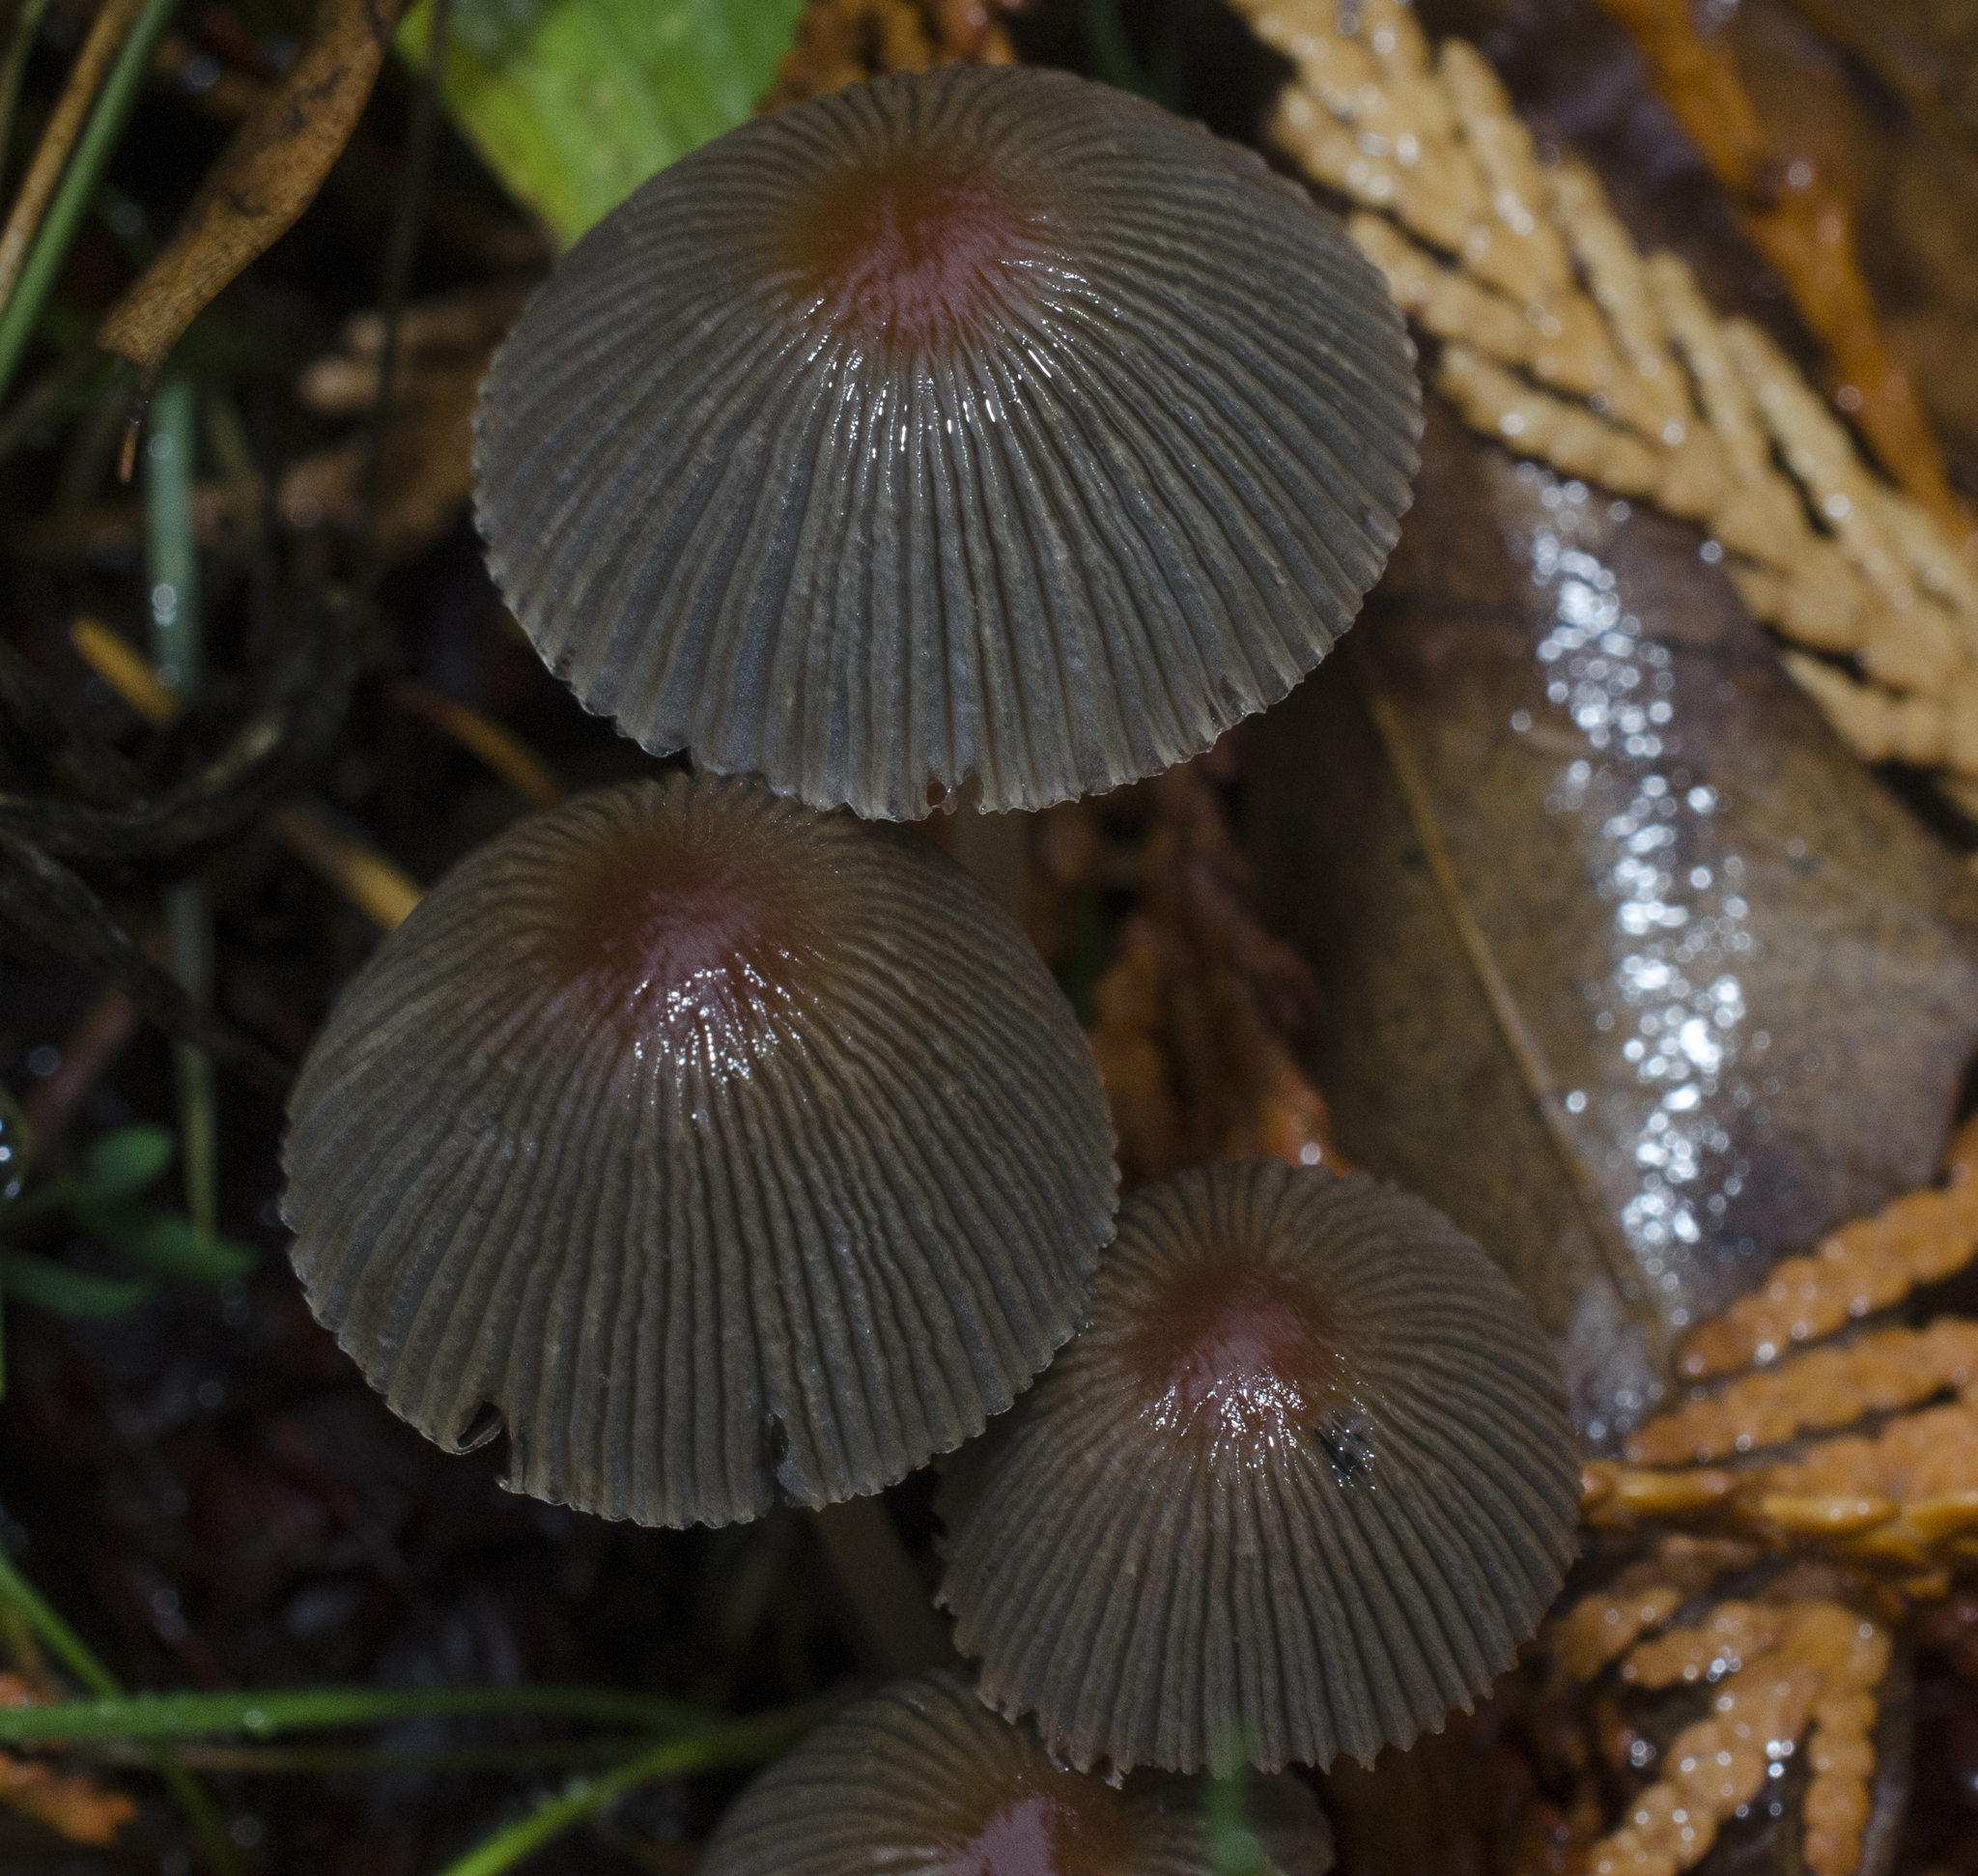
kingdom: Fungi
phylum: Basidiomycota
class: Agaricomycetes
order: Agaricales
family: Psathyrellaceae
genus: Parasola
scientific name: Parasola auricoma
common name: Goldenhaired inkcap
